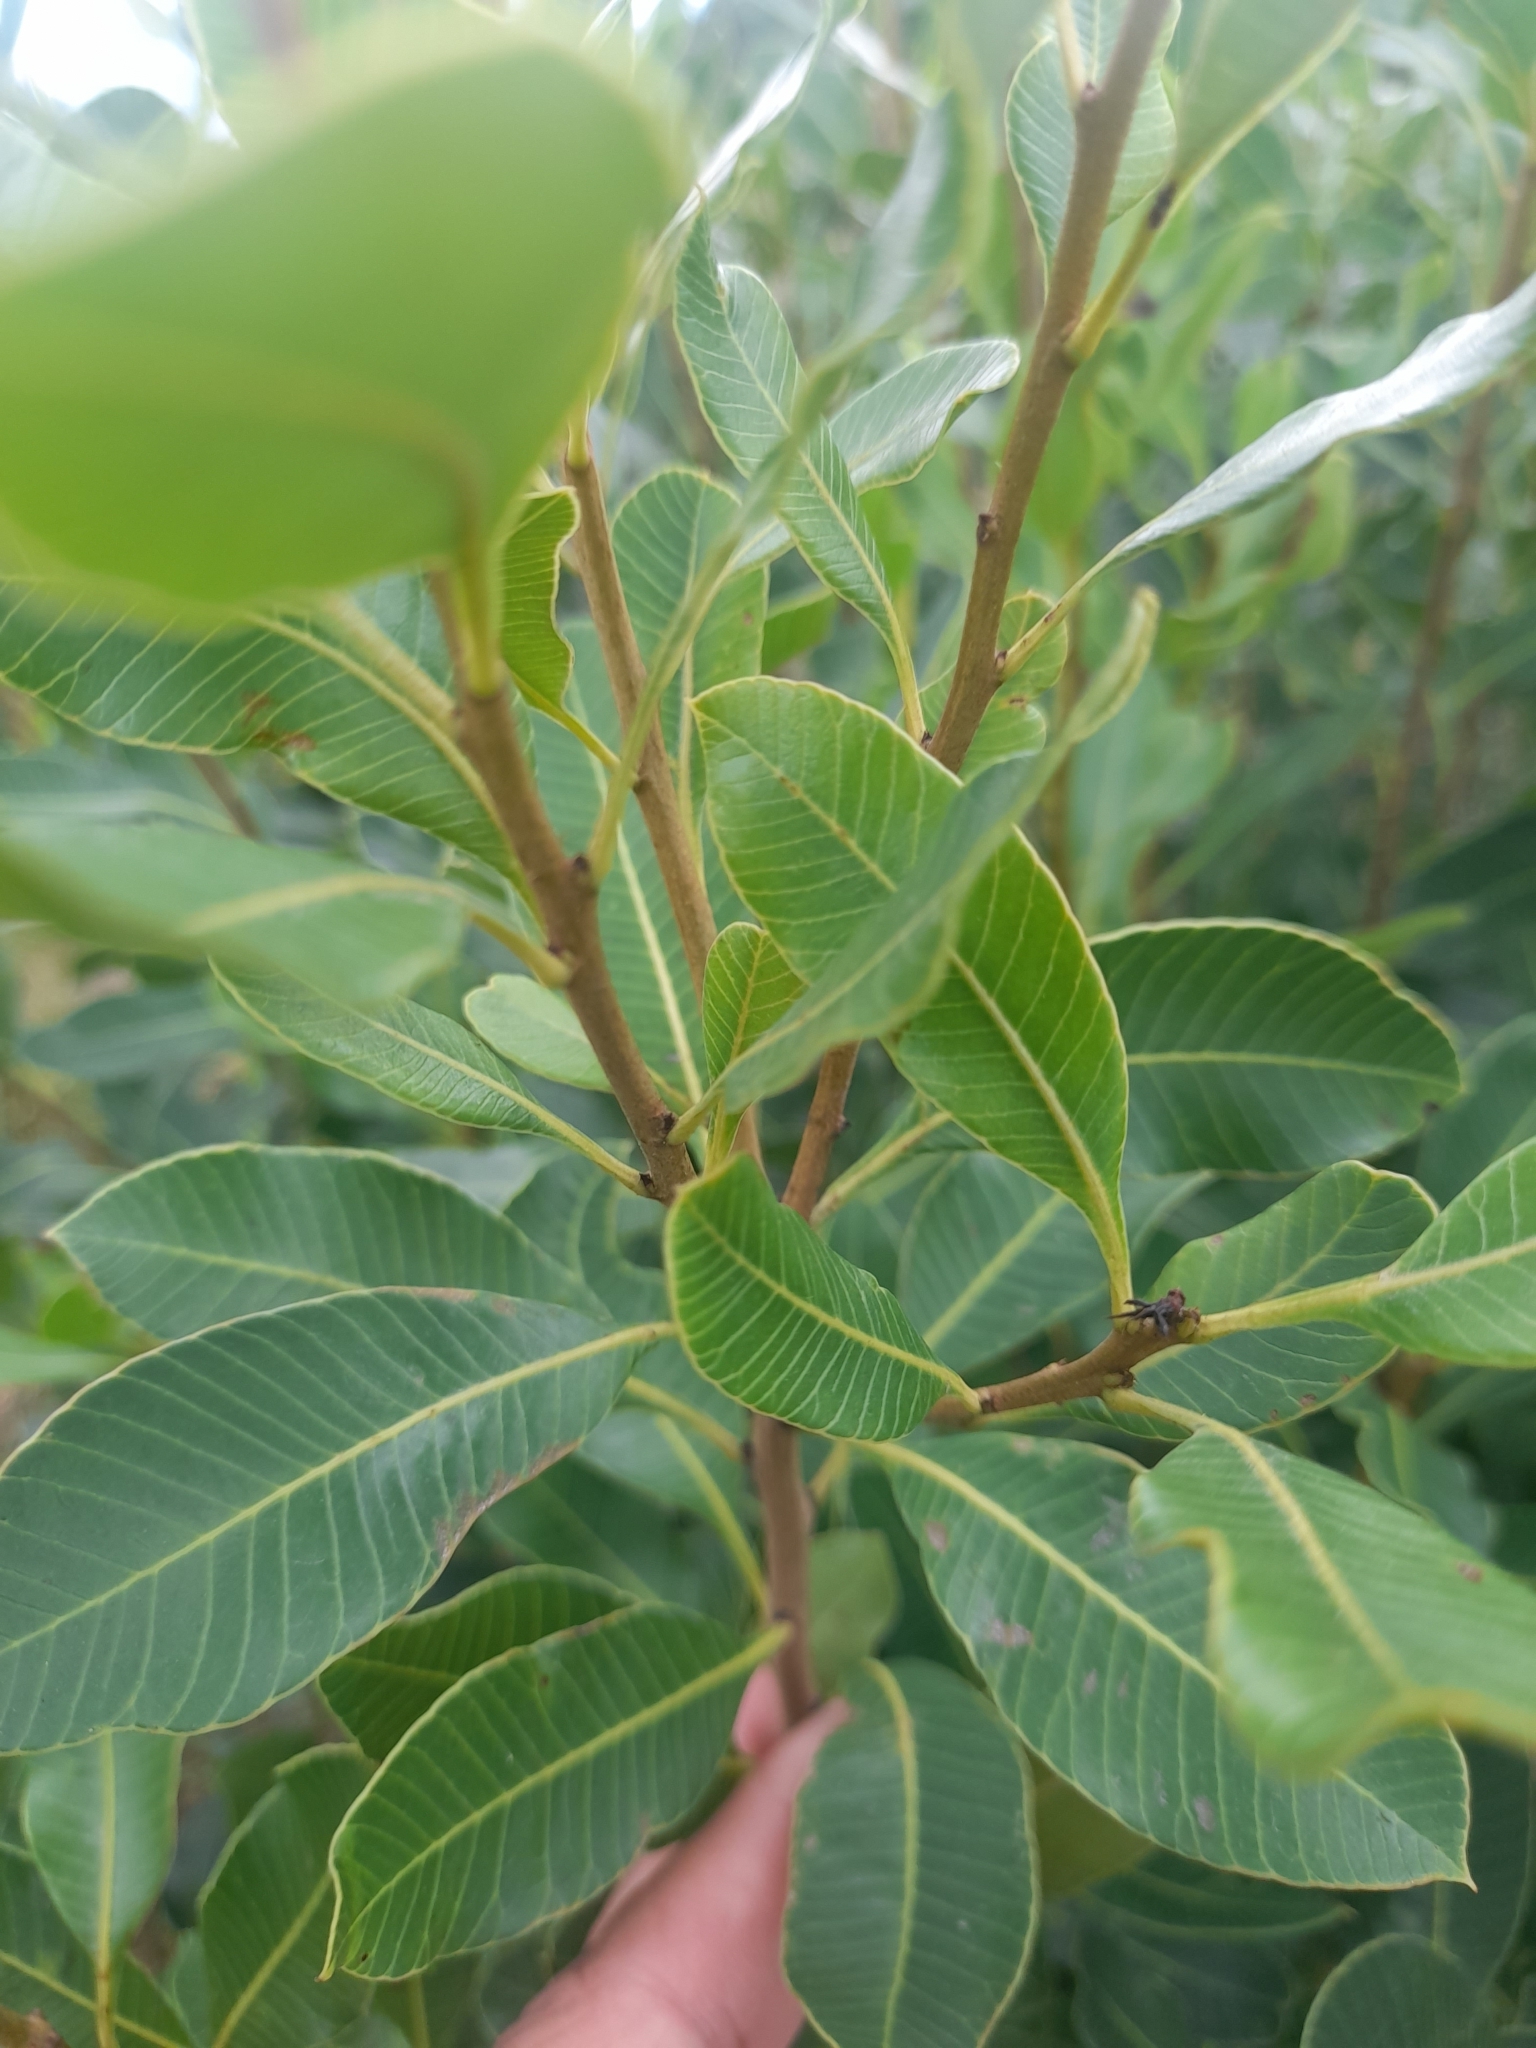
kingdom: Plantae
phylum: Tracheophyta
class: Magnoliopsida
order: Sapindales
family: Anacardiaceae
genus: Lithraea
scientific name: Lithraea brasiliensis
